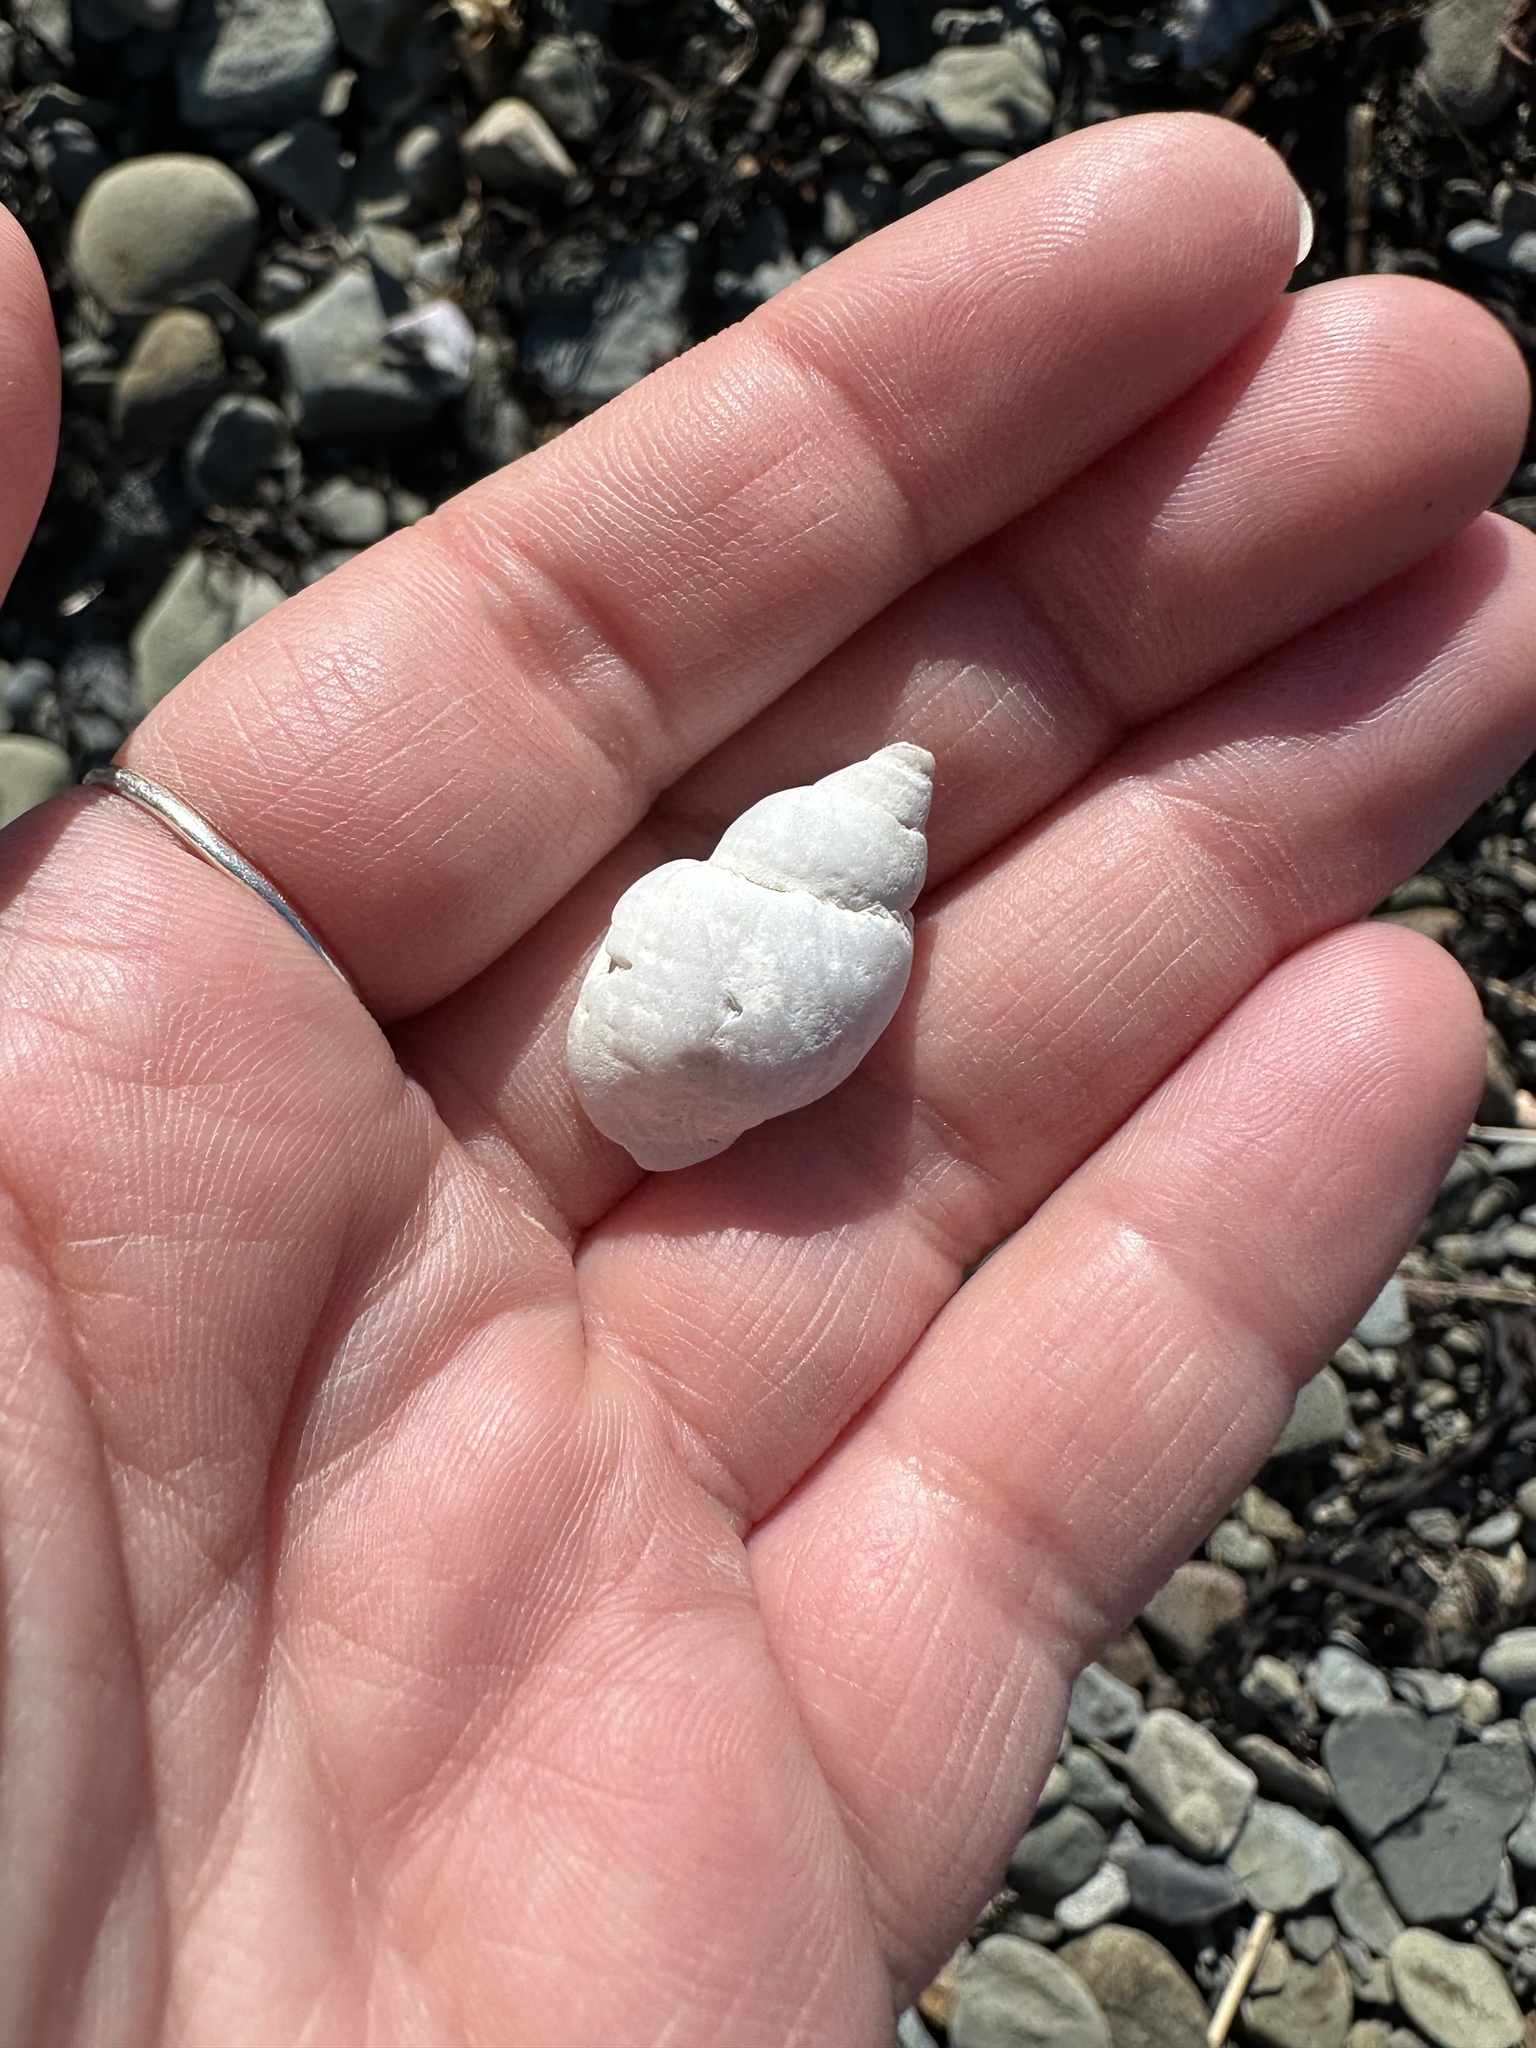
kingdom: Animalia
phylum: Mollusca
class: Gastropoda
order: Neogastropoda
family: Muricidae
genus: Nucella
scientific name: Nucella lapillus
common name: Dog whelk
